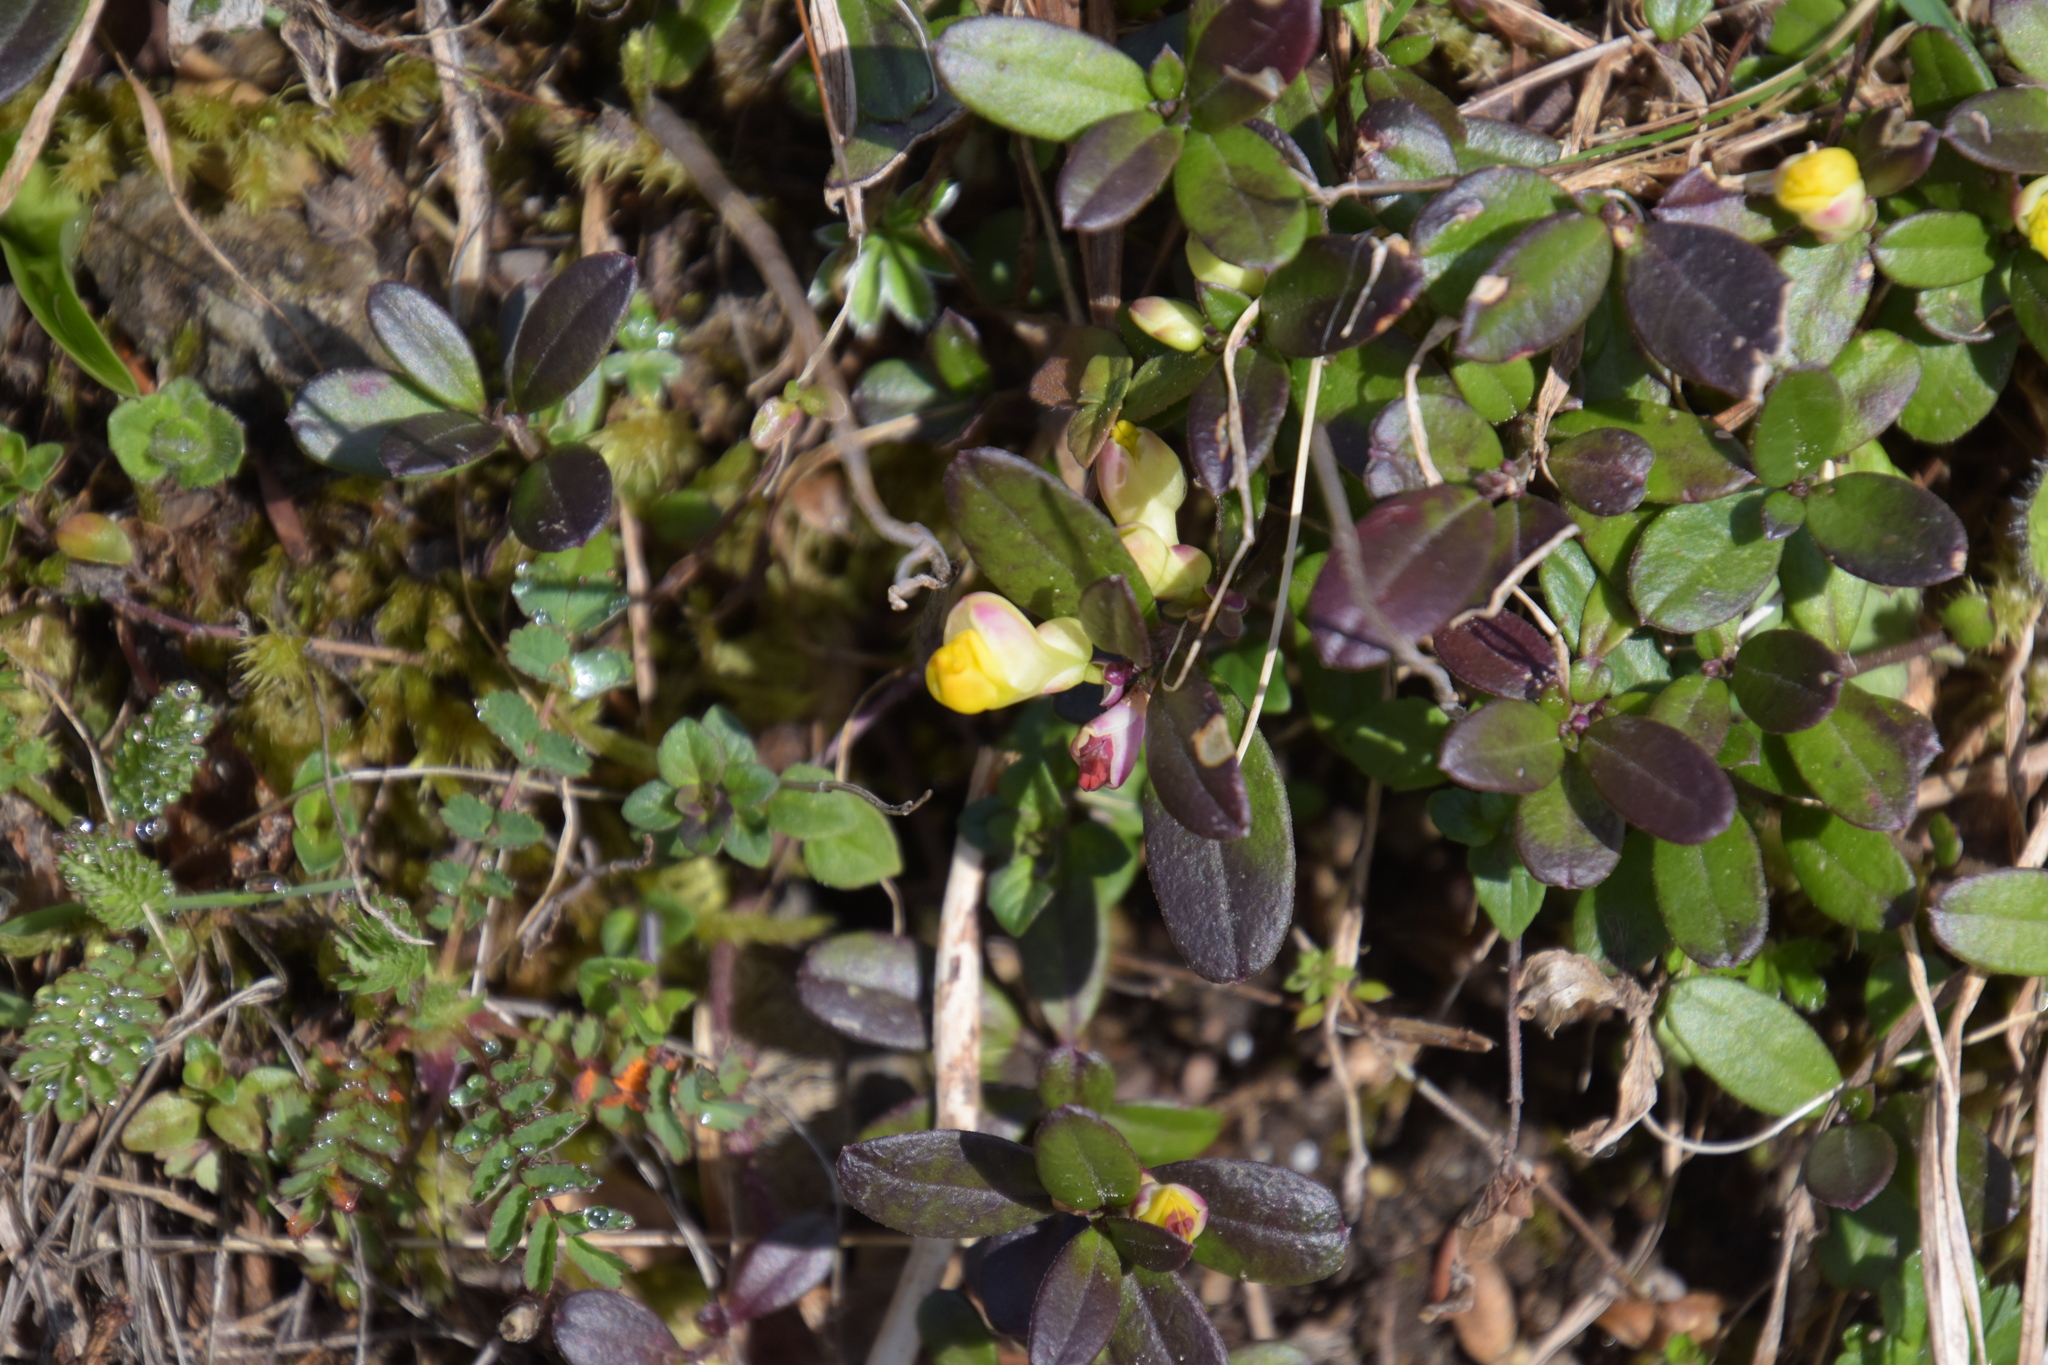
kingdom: Plantae
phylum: Tracheophyta
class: Magnoliopsida
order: Fabales
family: Polygalaceae
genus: Polygaloides
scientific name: Polygaloides chamaebuxus
